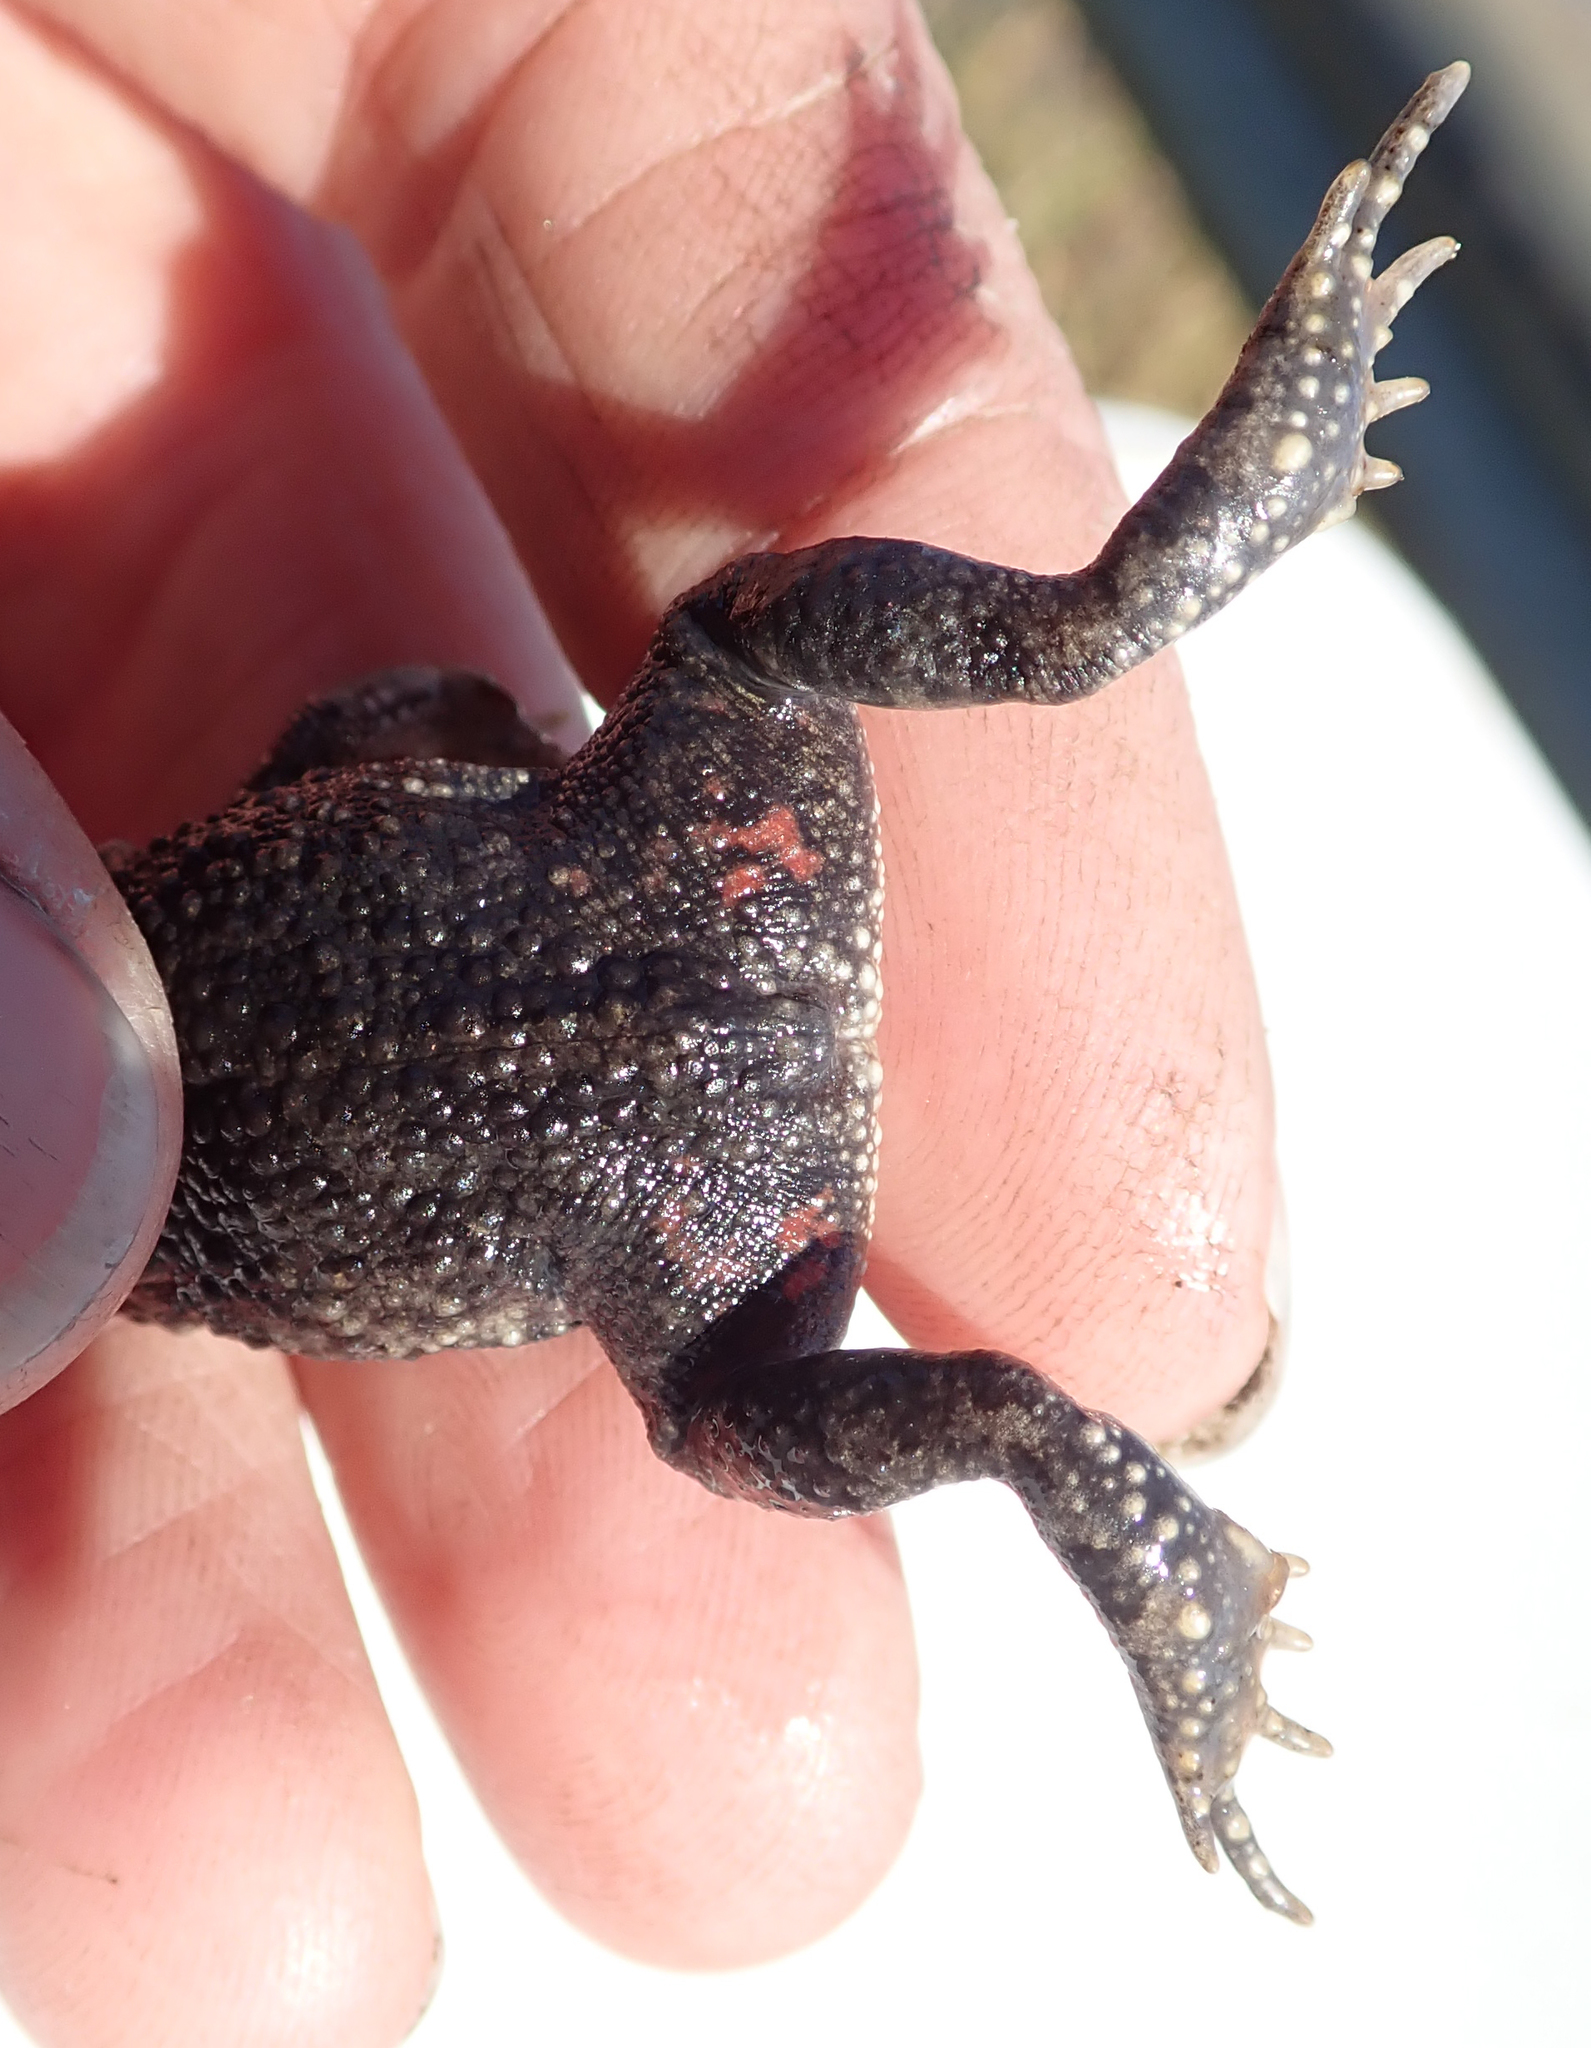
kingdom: Animalia
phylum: Chordata
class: Amphibia
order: Anura
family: Bufonidae
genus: Sclerophrys
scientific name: Sclerophrys gutturalis
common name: African common toad
